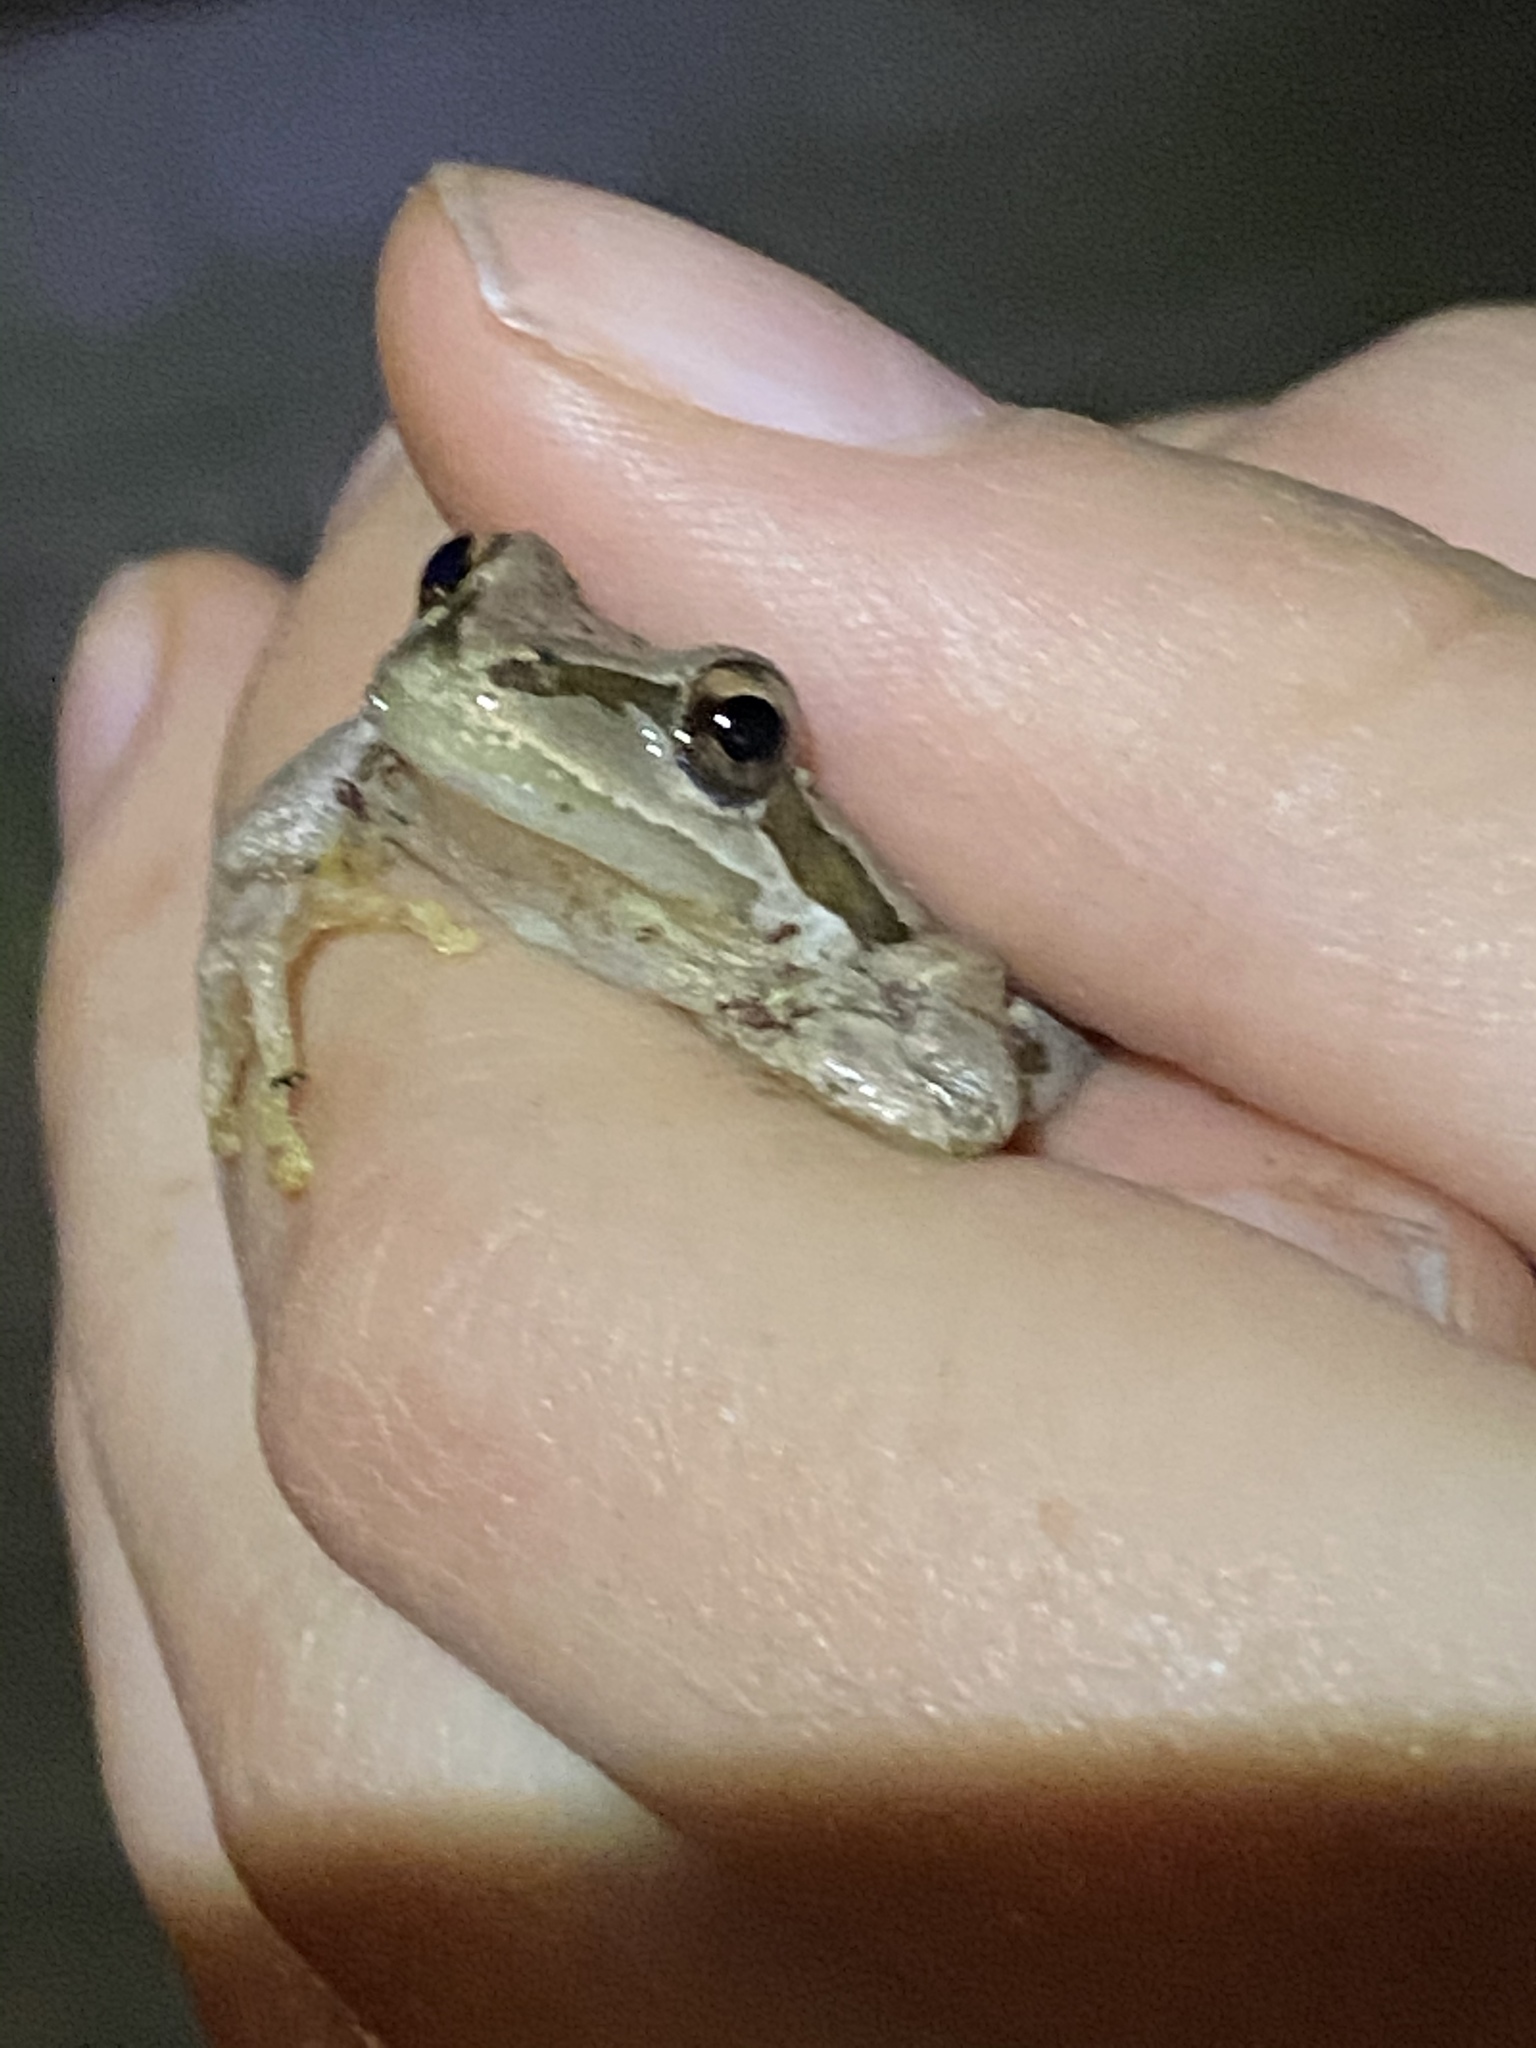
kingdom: Animalia
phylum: Chordata
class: Amphibia
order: Anura
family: Hylidae
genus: Pseudacris
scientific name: Pseudacris regilla
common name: Pacific chorus frog
